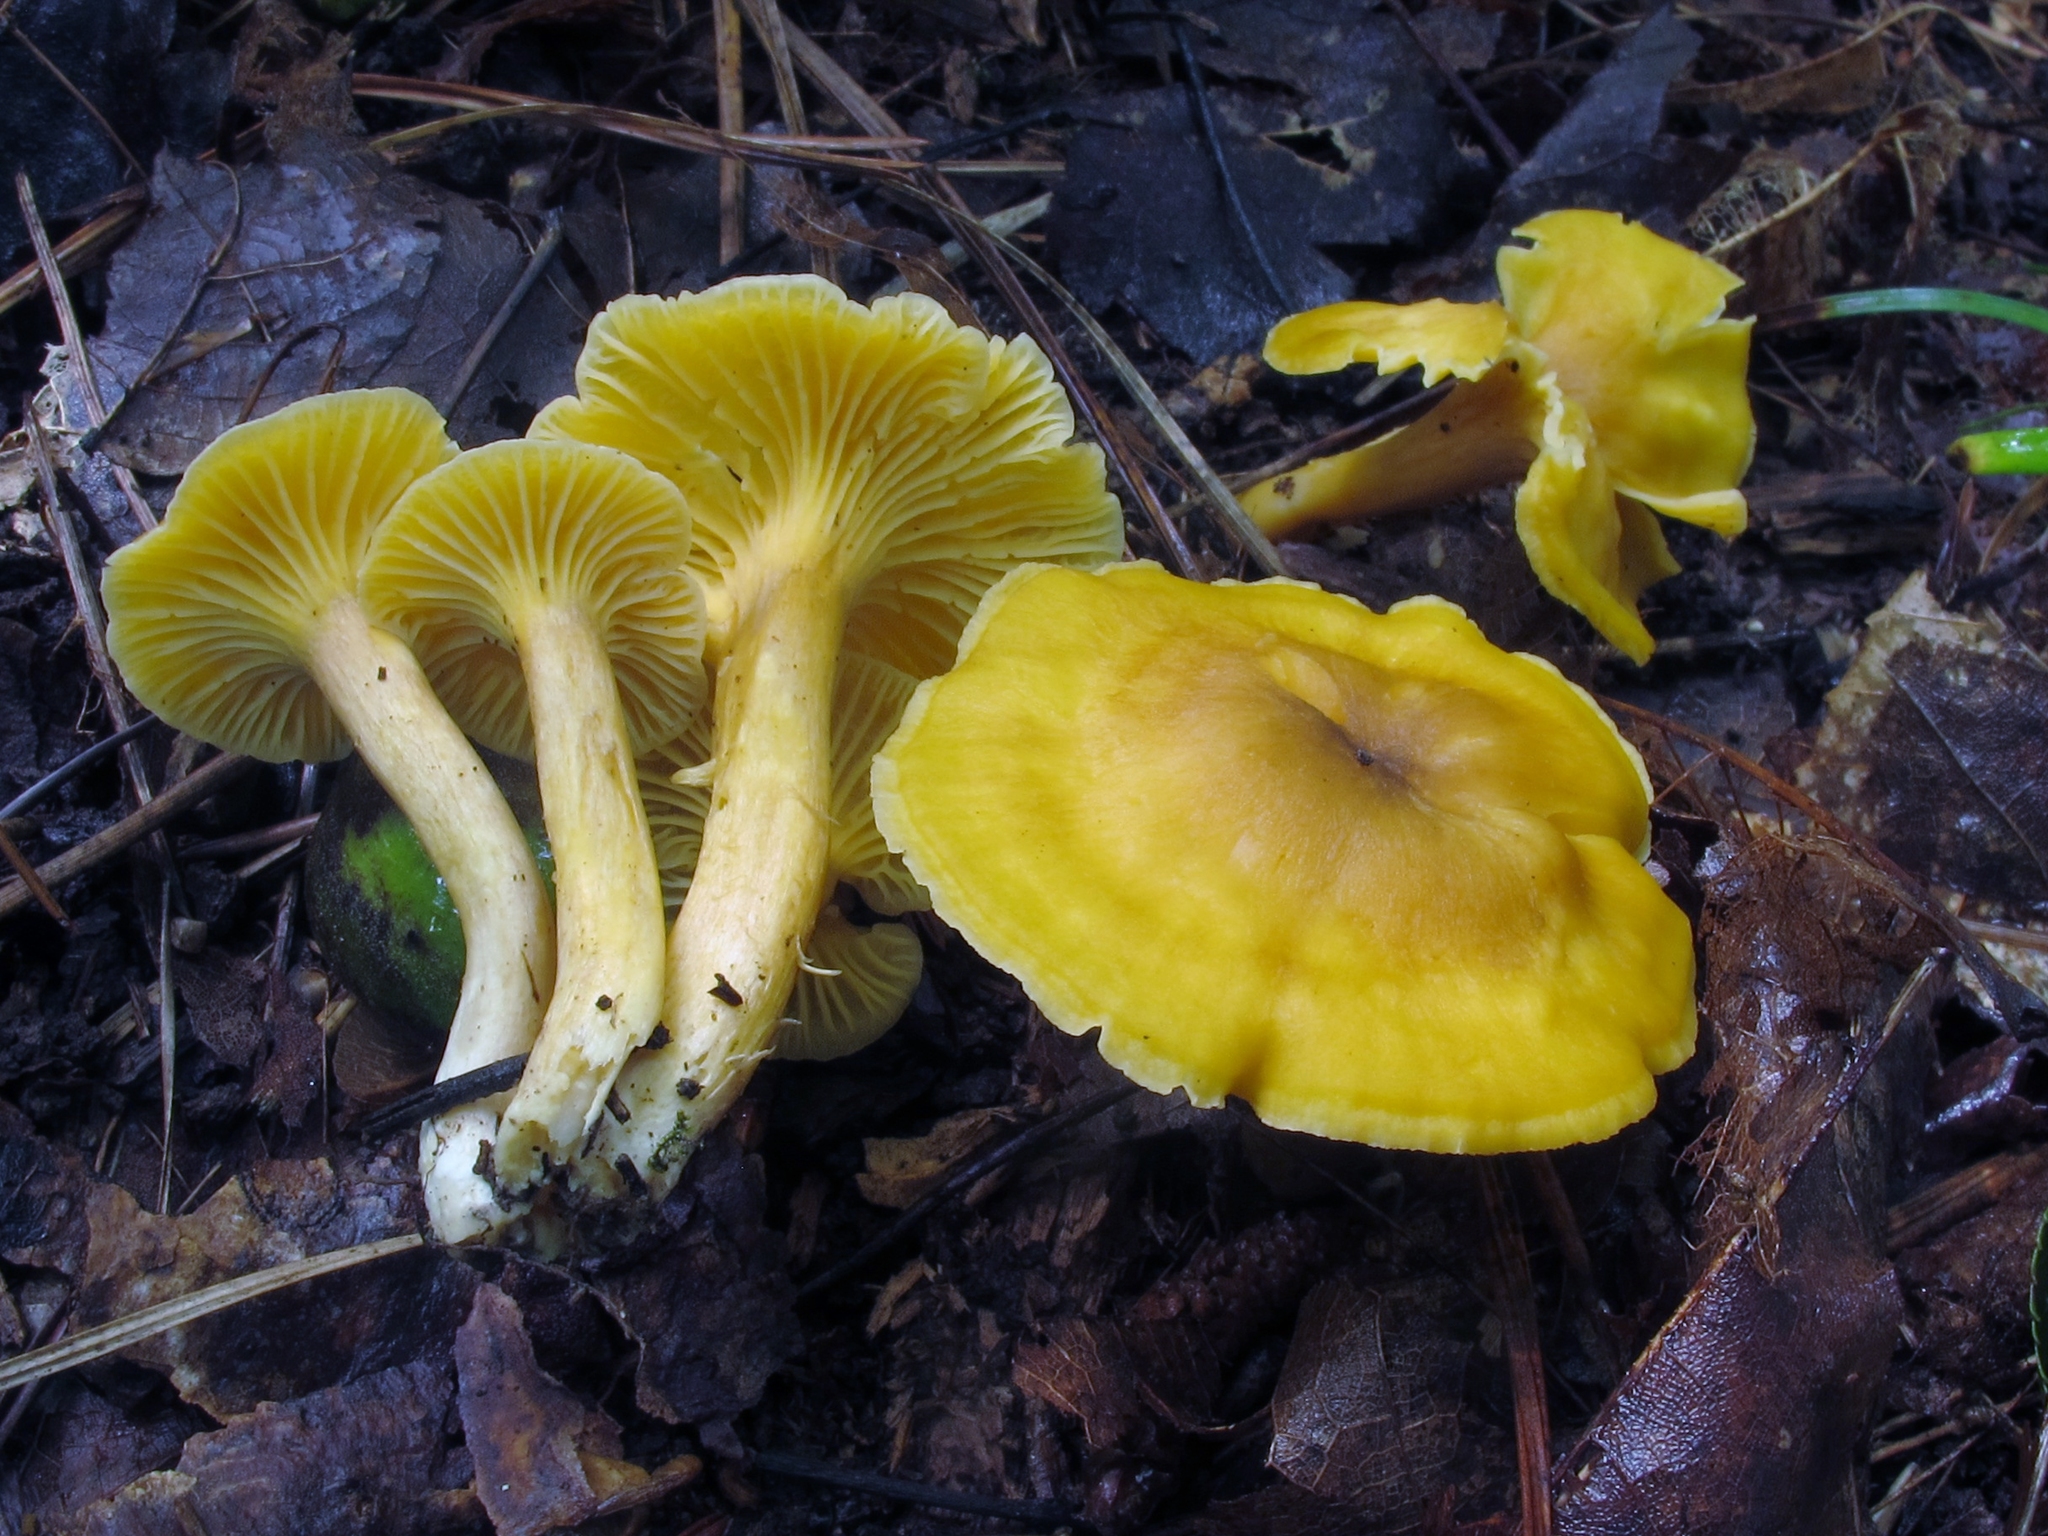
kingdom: Fungi
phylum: Basidiomycota
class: Agaricomycetes
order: Cantharellales
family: Hydnaceae
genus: Cantharellus
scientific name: Cantharellus appalachiensis
